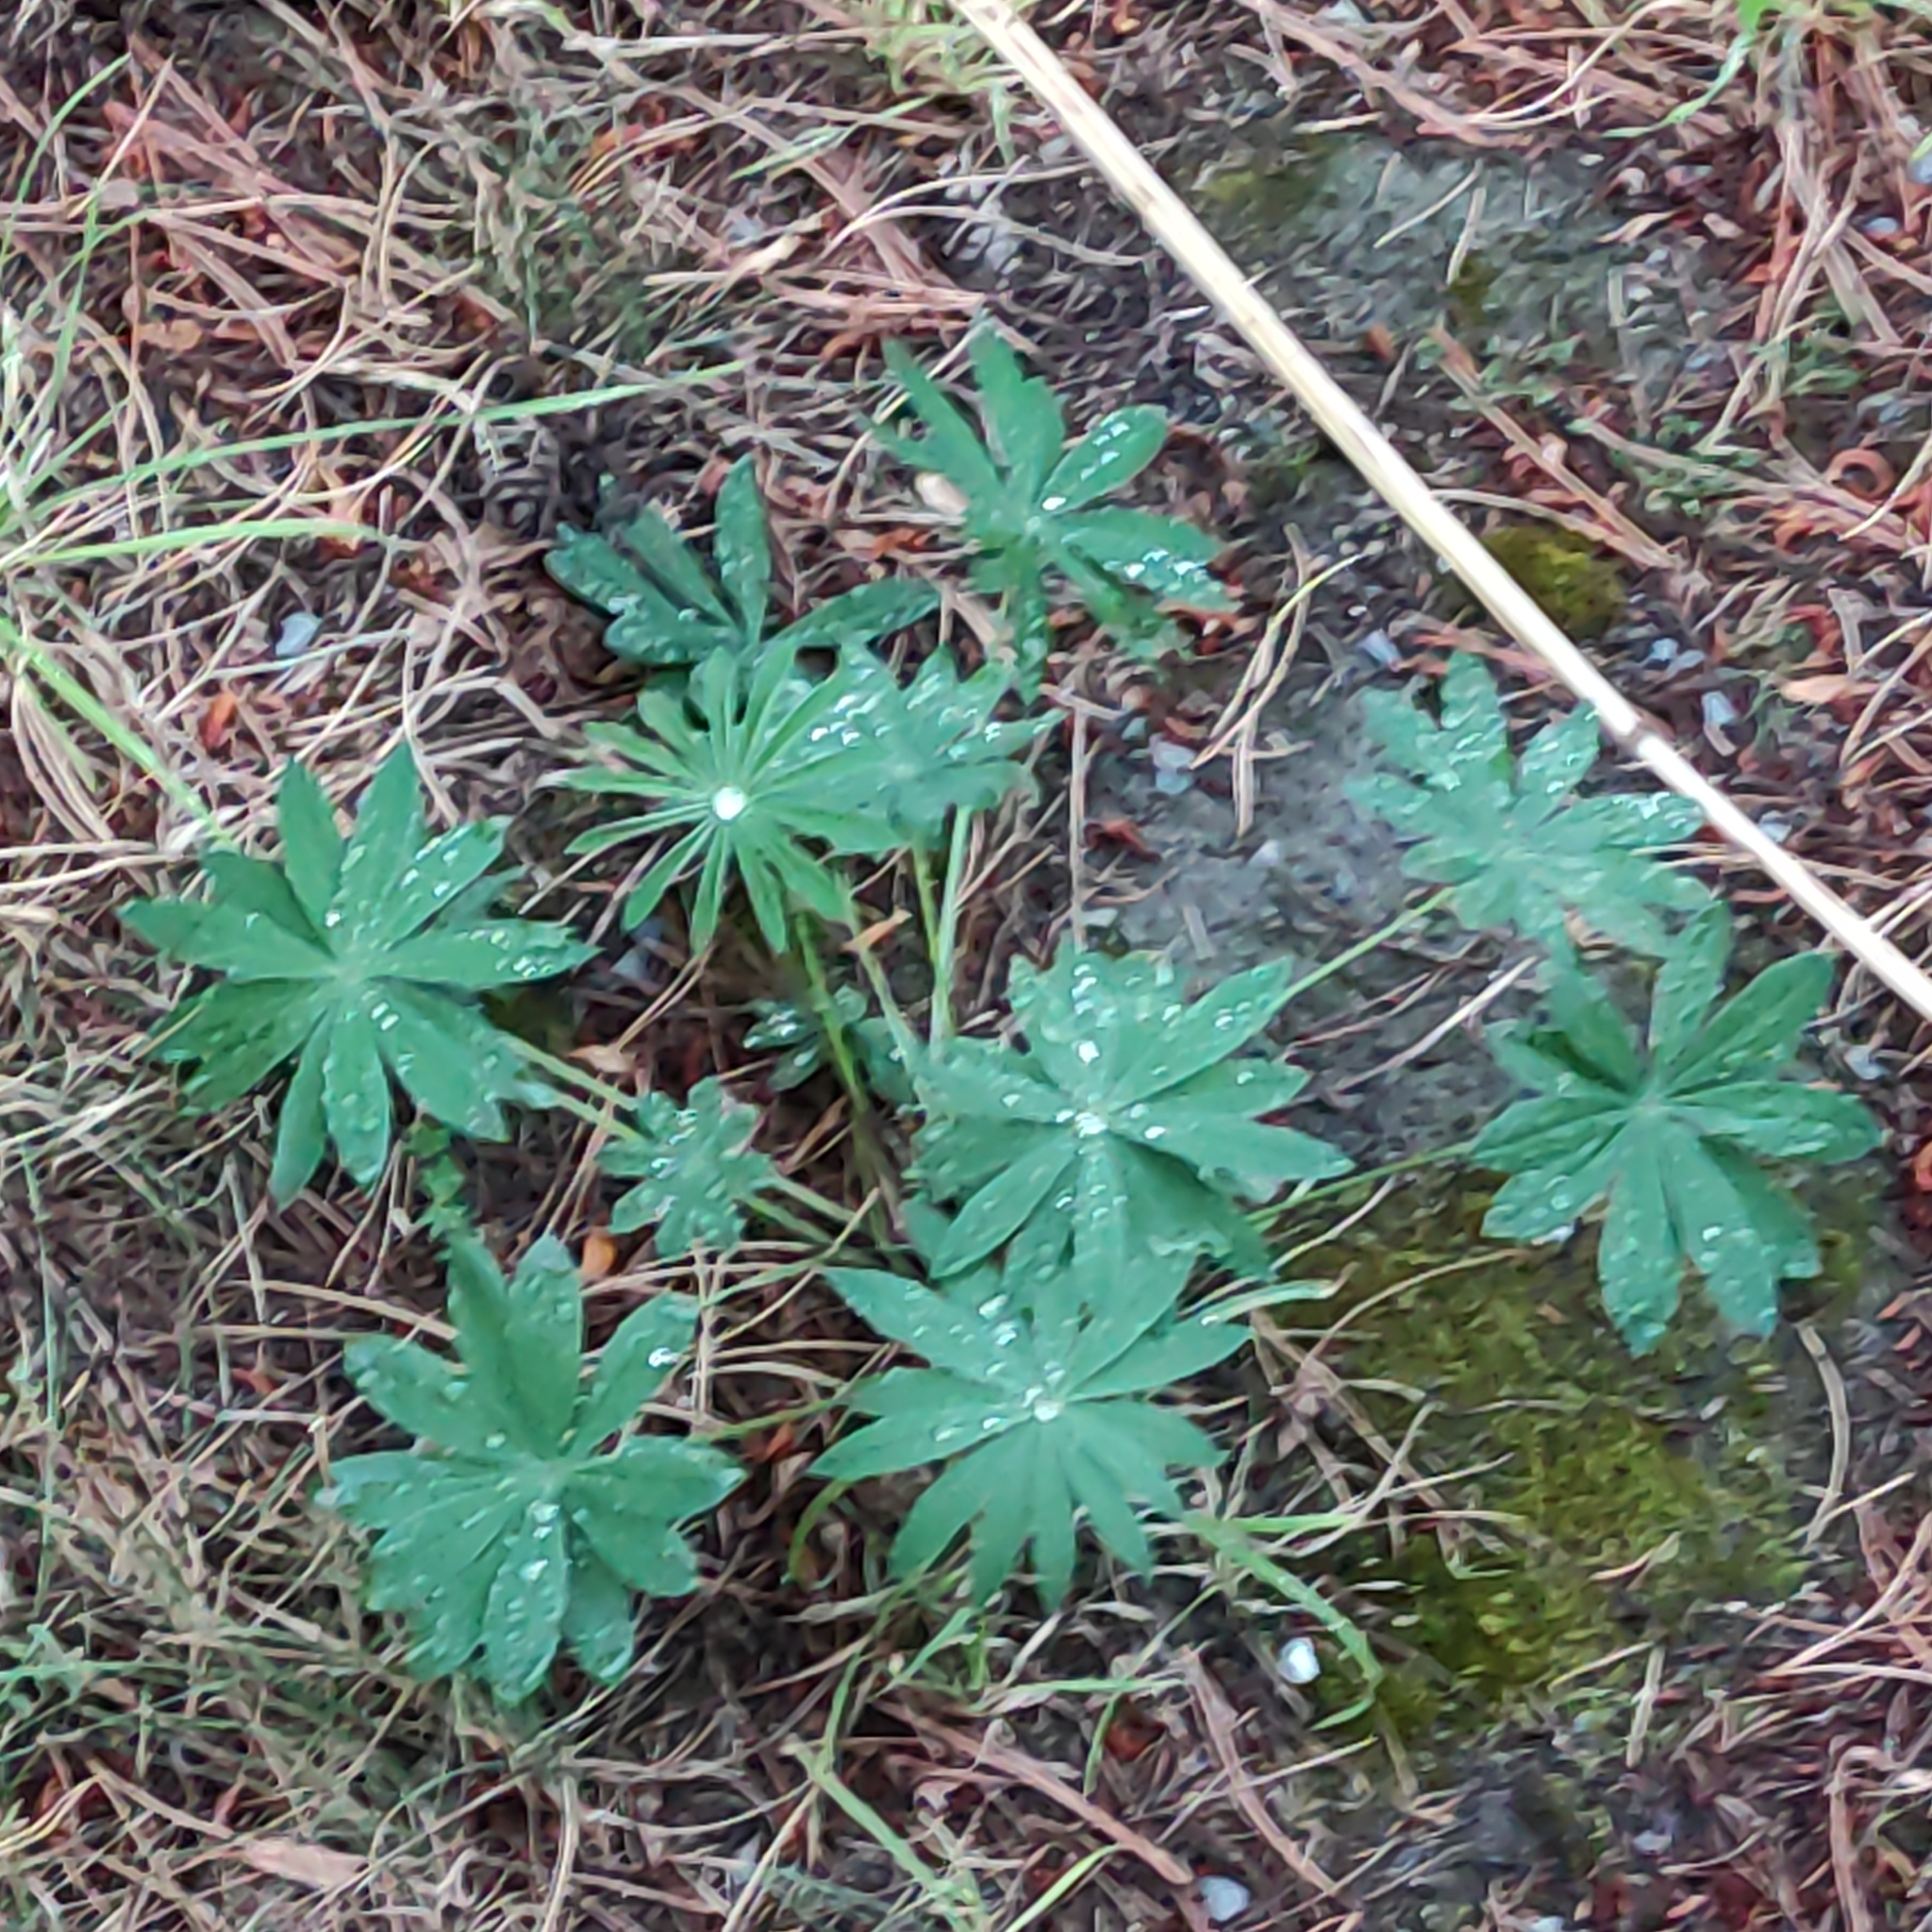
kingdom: Plantae
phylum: Tracheophyta
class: Magnoliopsida
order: Fabales
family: Fabaceae
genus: Lupinus
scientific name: Lupinus polyphyllus
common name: Garden lupin
